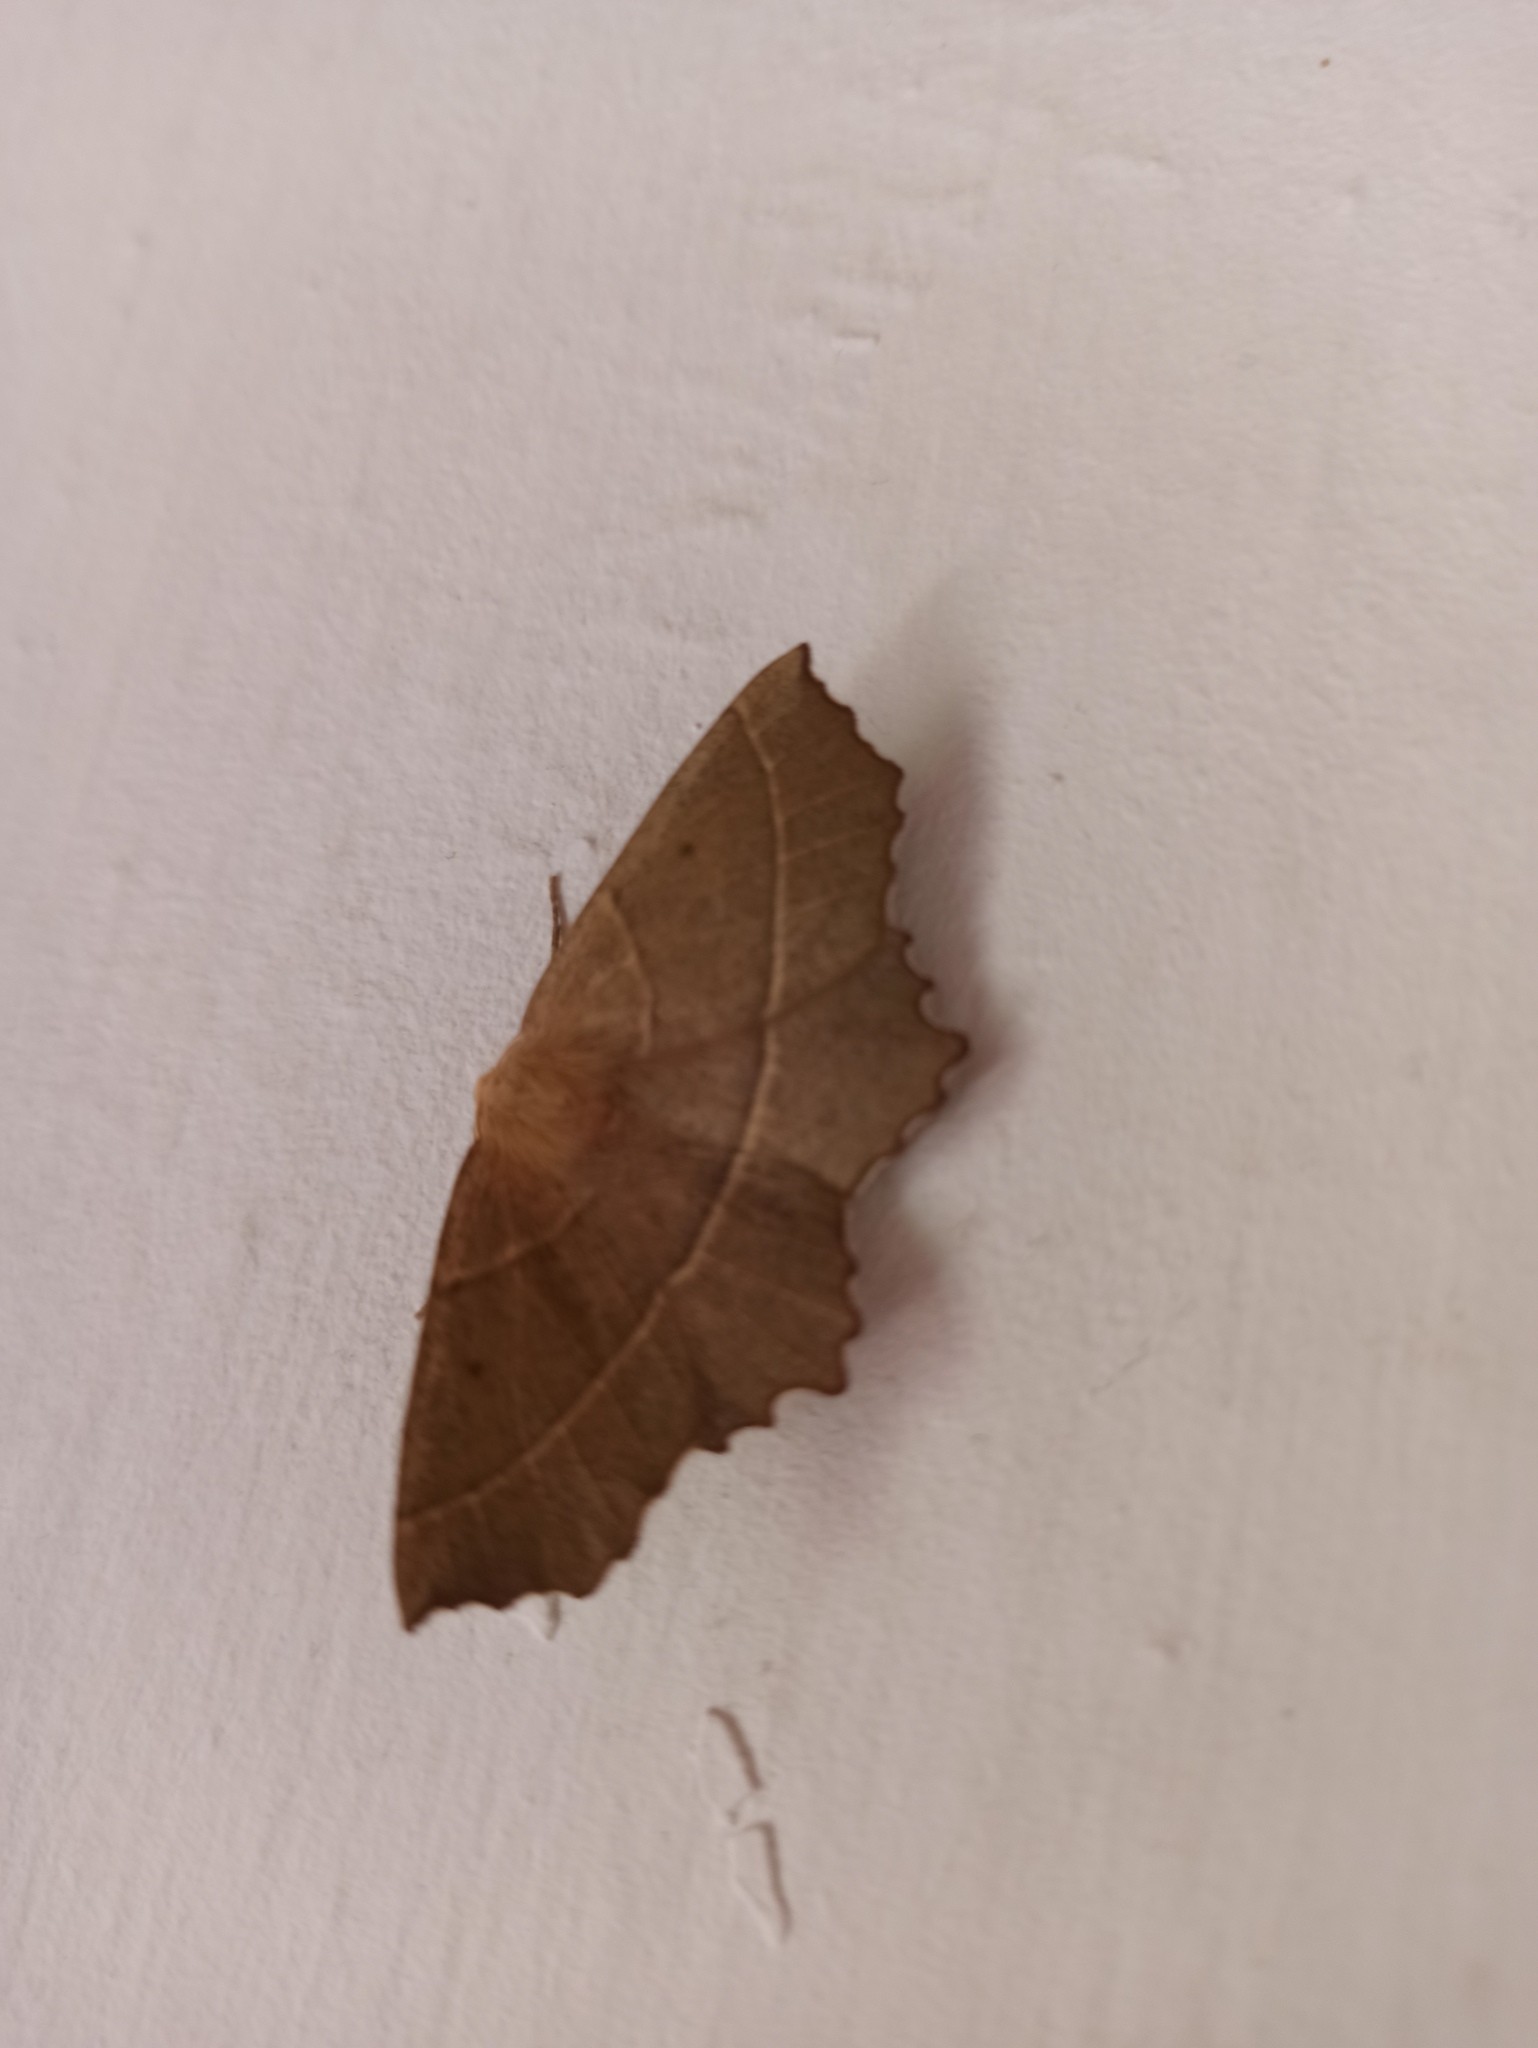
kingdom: Animalia
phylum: Arthropoda
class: Insecta
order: Lepidoptera
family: Geometridae
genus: Gerinia
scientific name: Gerinia honoraria
